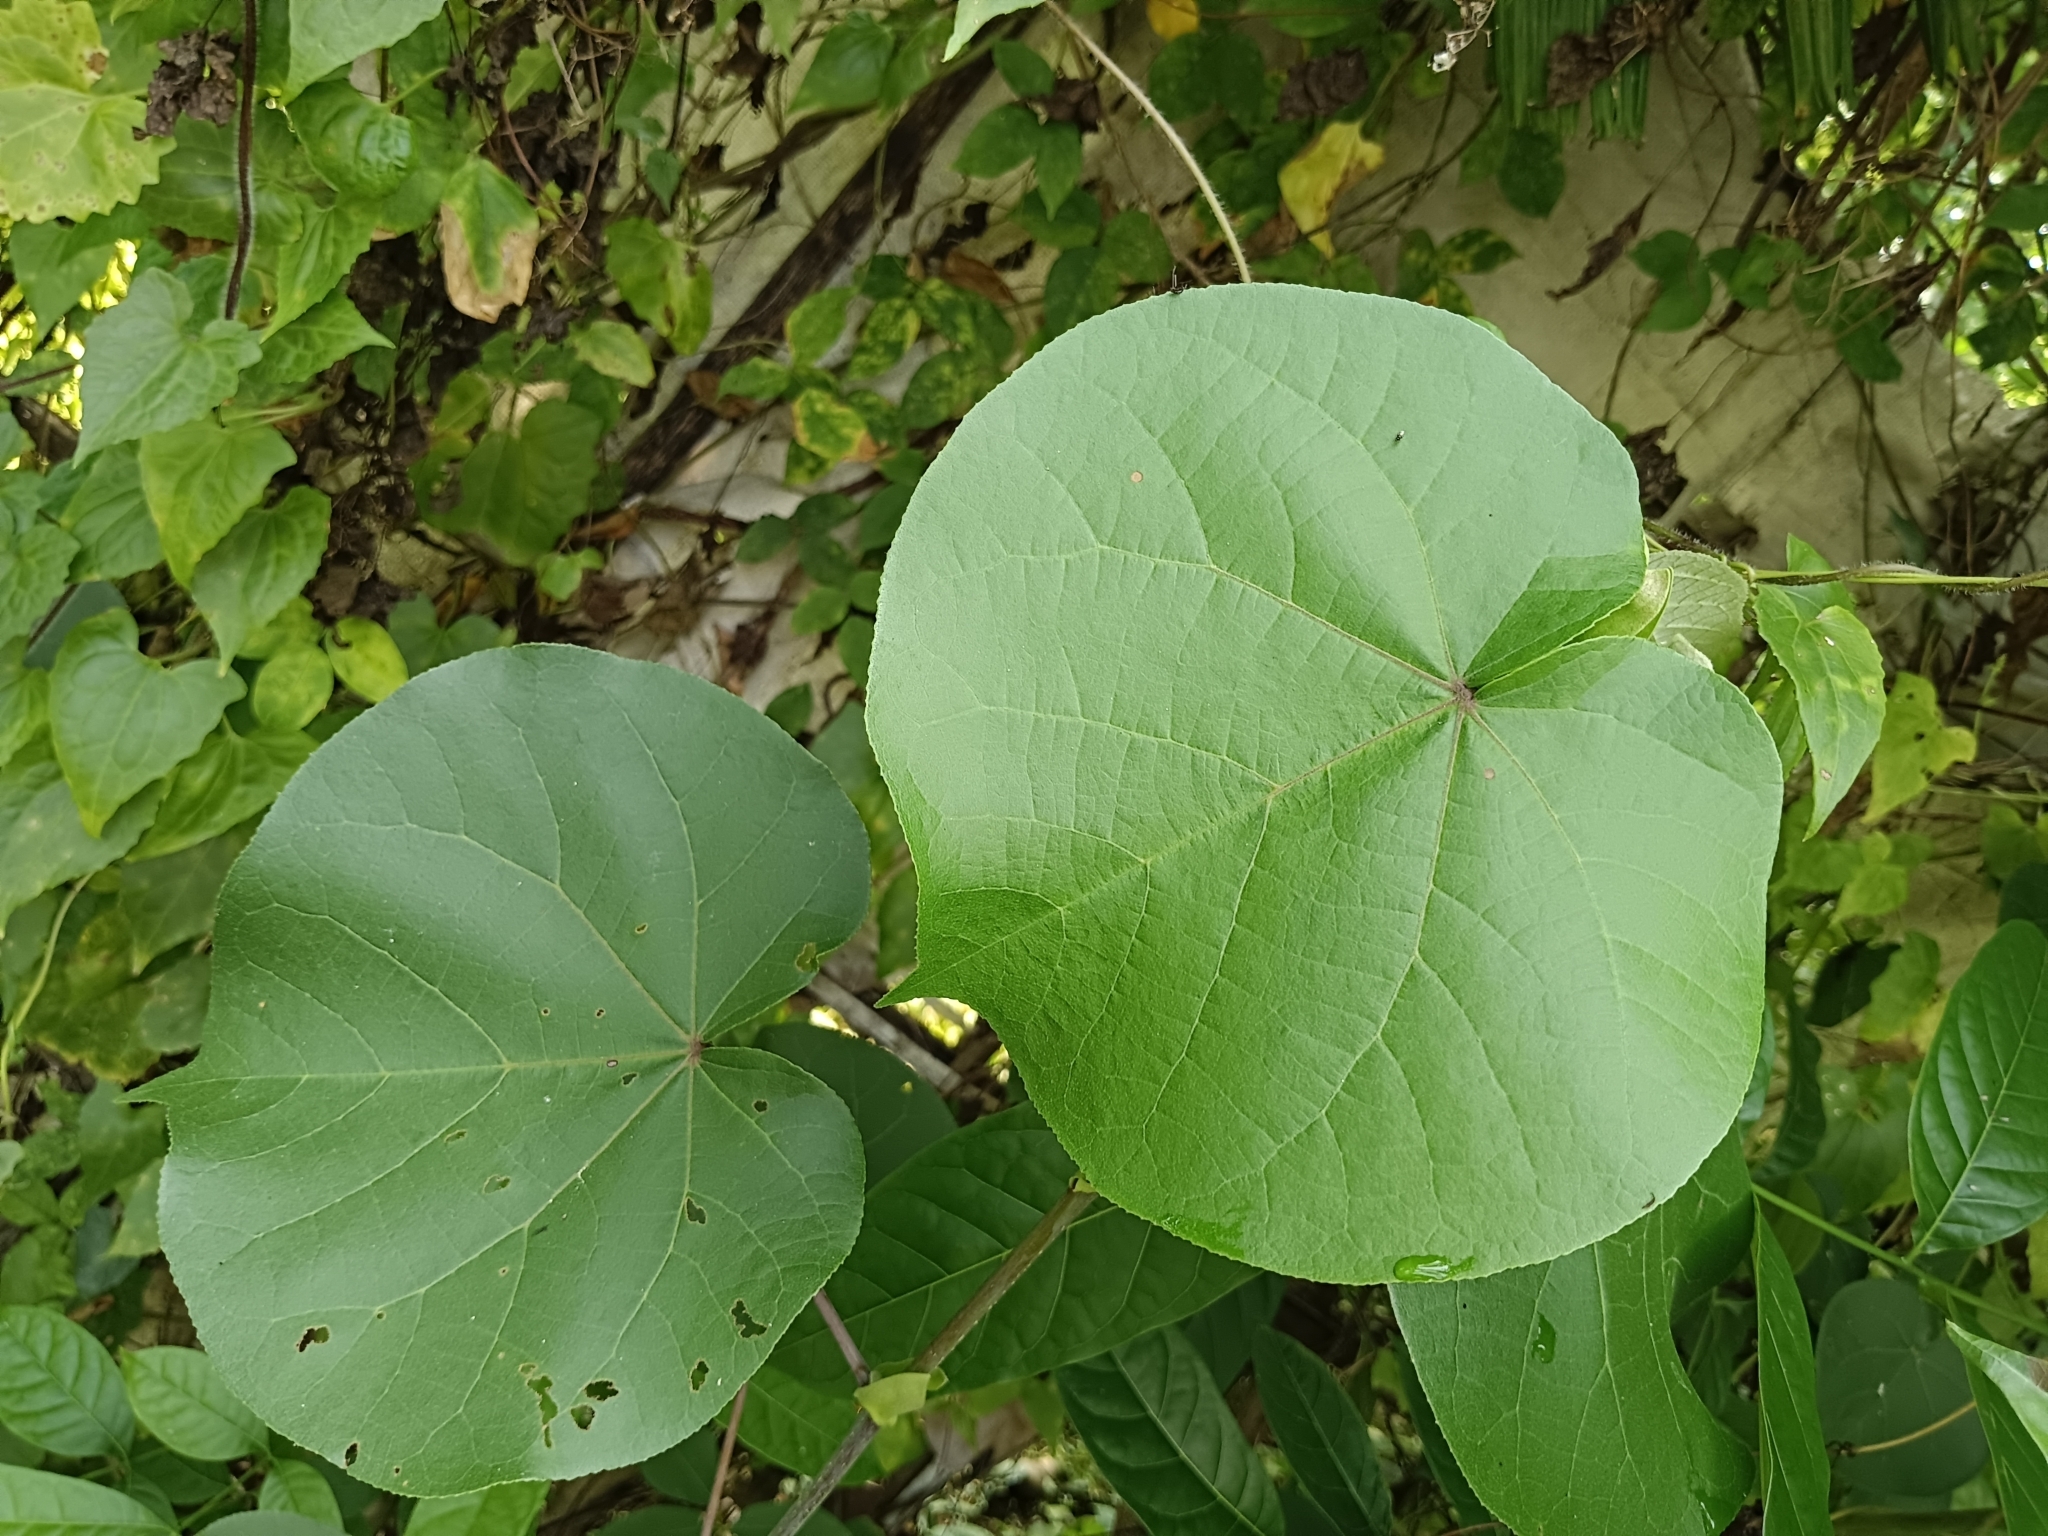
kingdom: Plantae
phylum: Tracheophyta
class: Magnoliopsida
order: Malvales
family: Malvaceae
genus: Talipariti
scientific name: Talipariti tiliaceum
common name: Sea hibiscus
